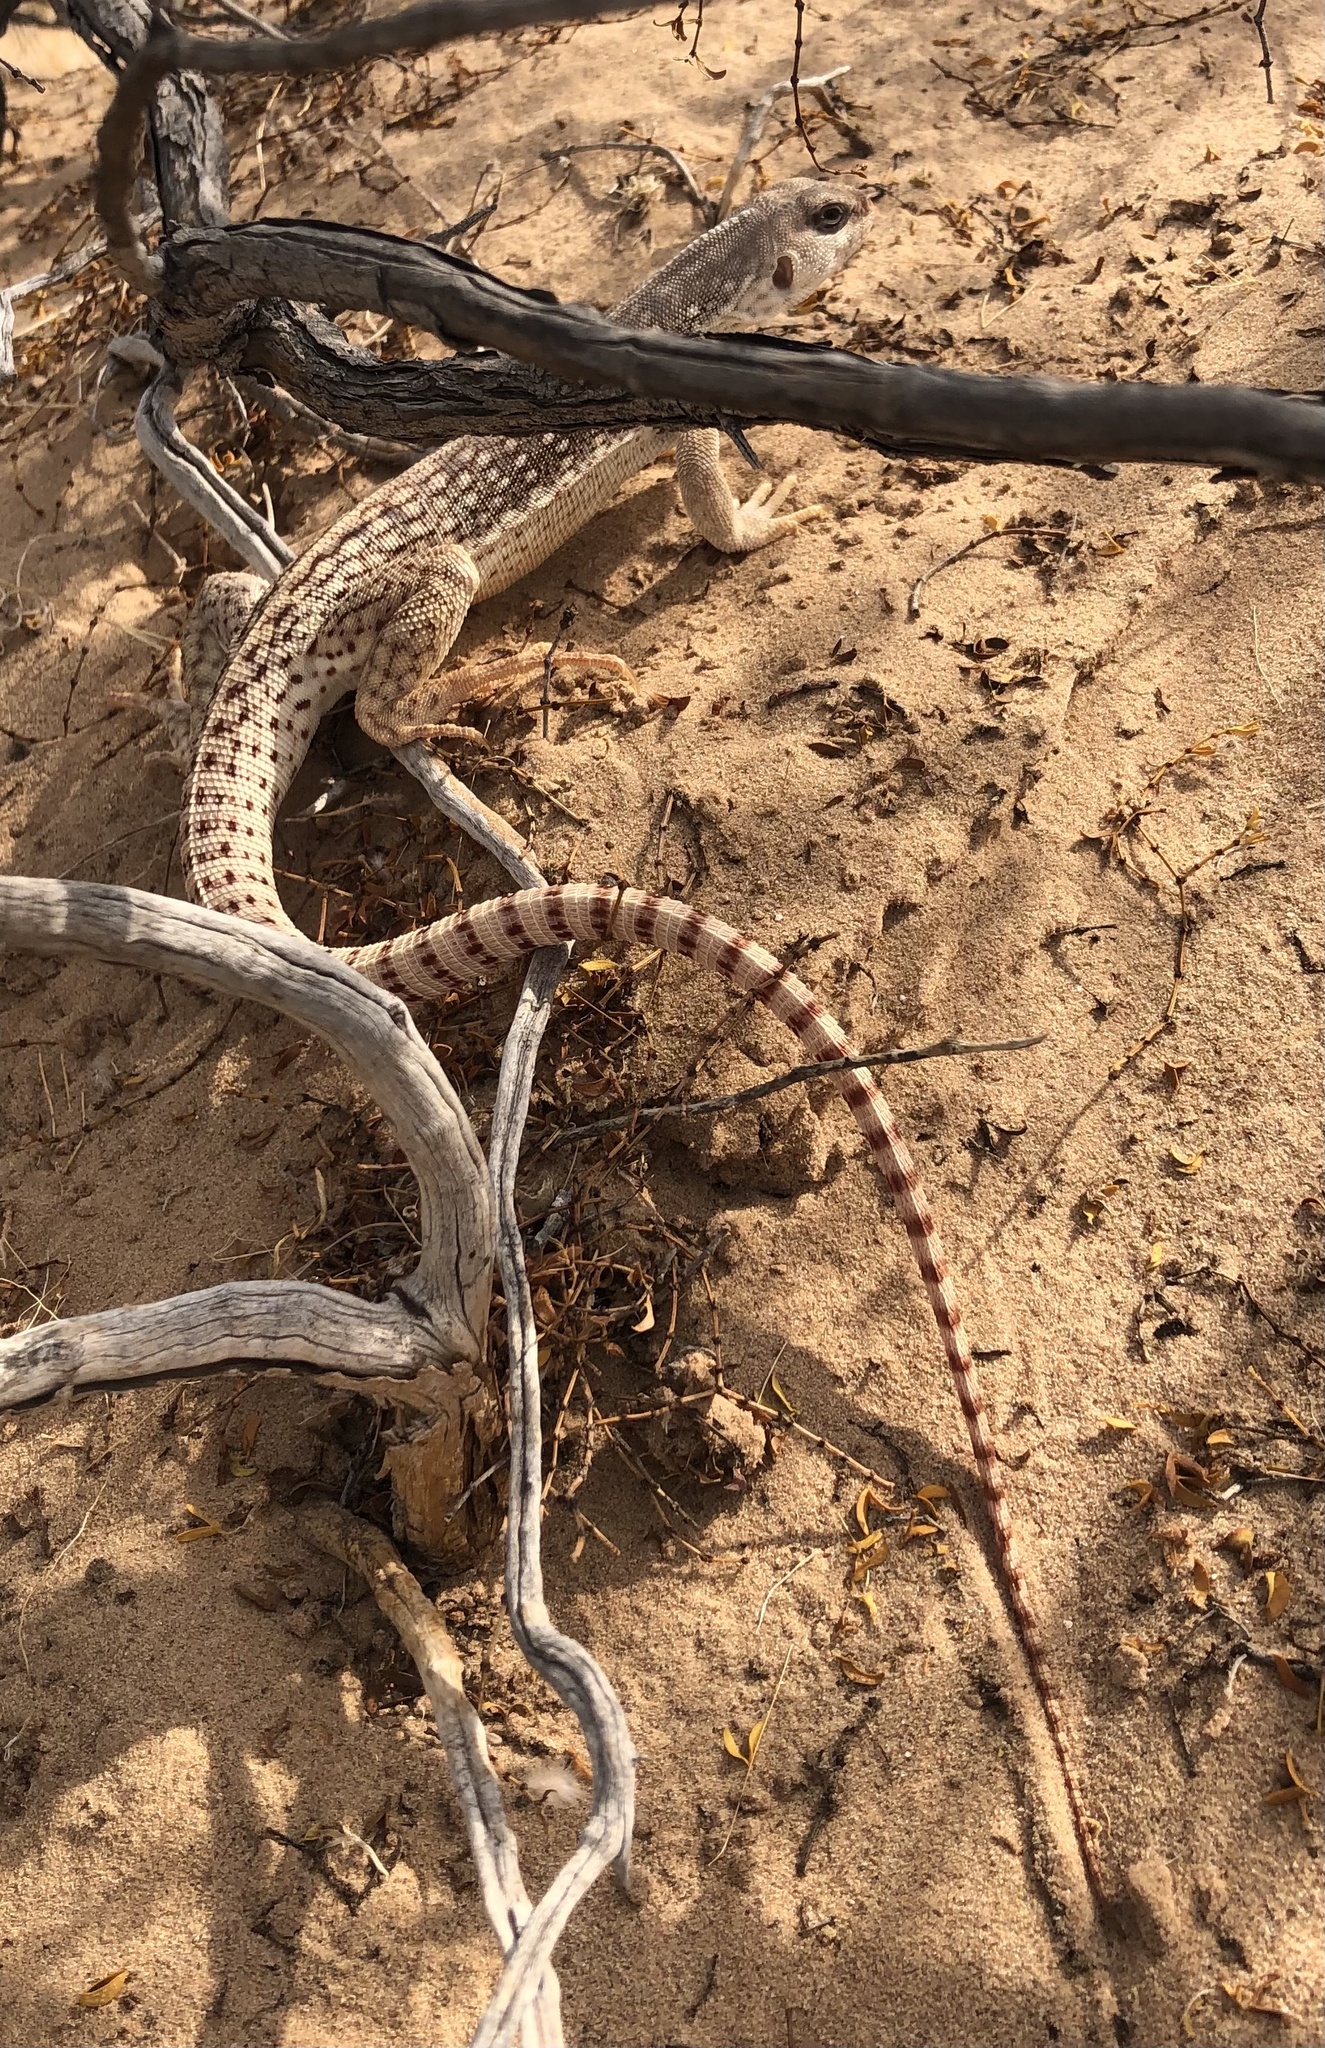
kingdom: Animalia
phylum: Chordata
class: Squamata
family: Iguanidae
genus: Dipsosaurus
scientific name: Dipsosaurus dorsalis
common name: Desert iguana
